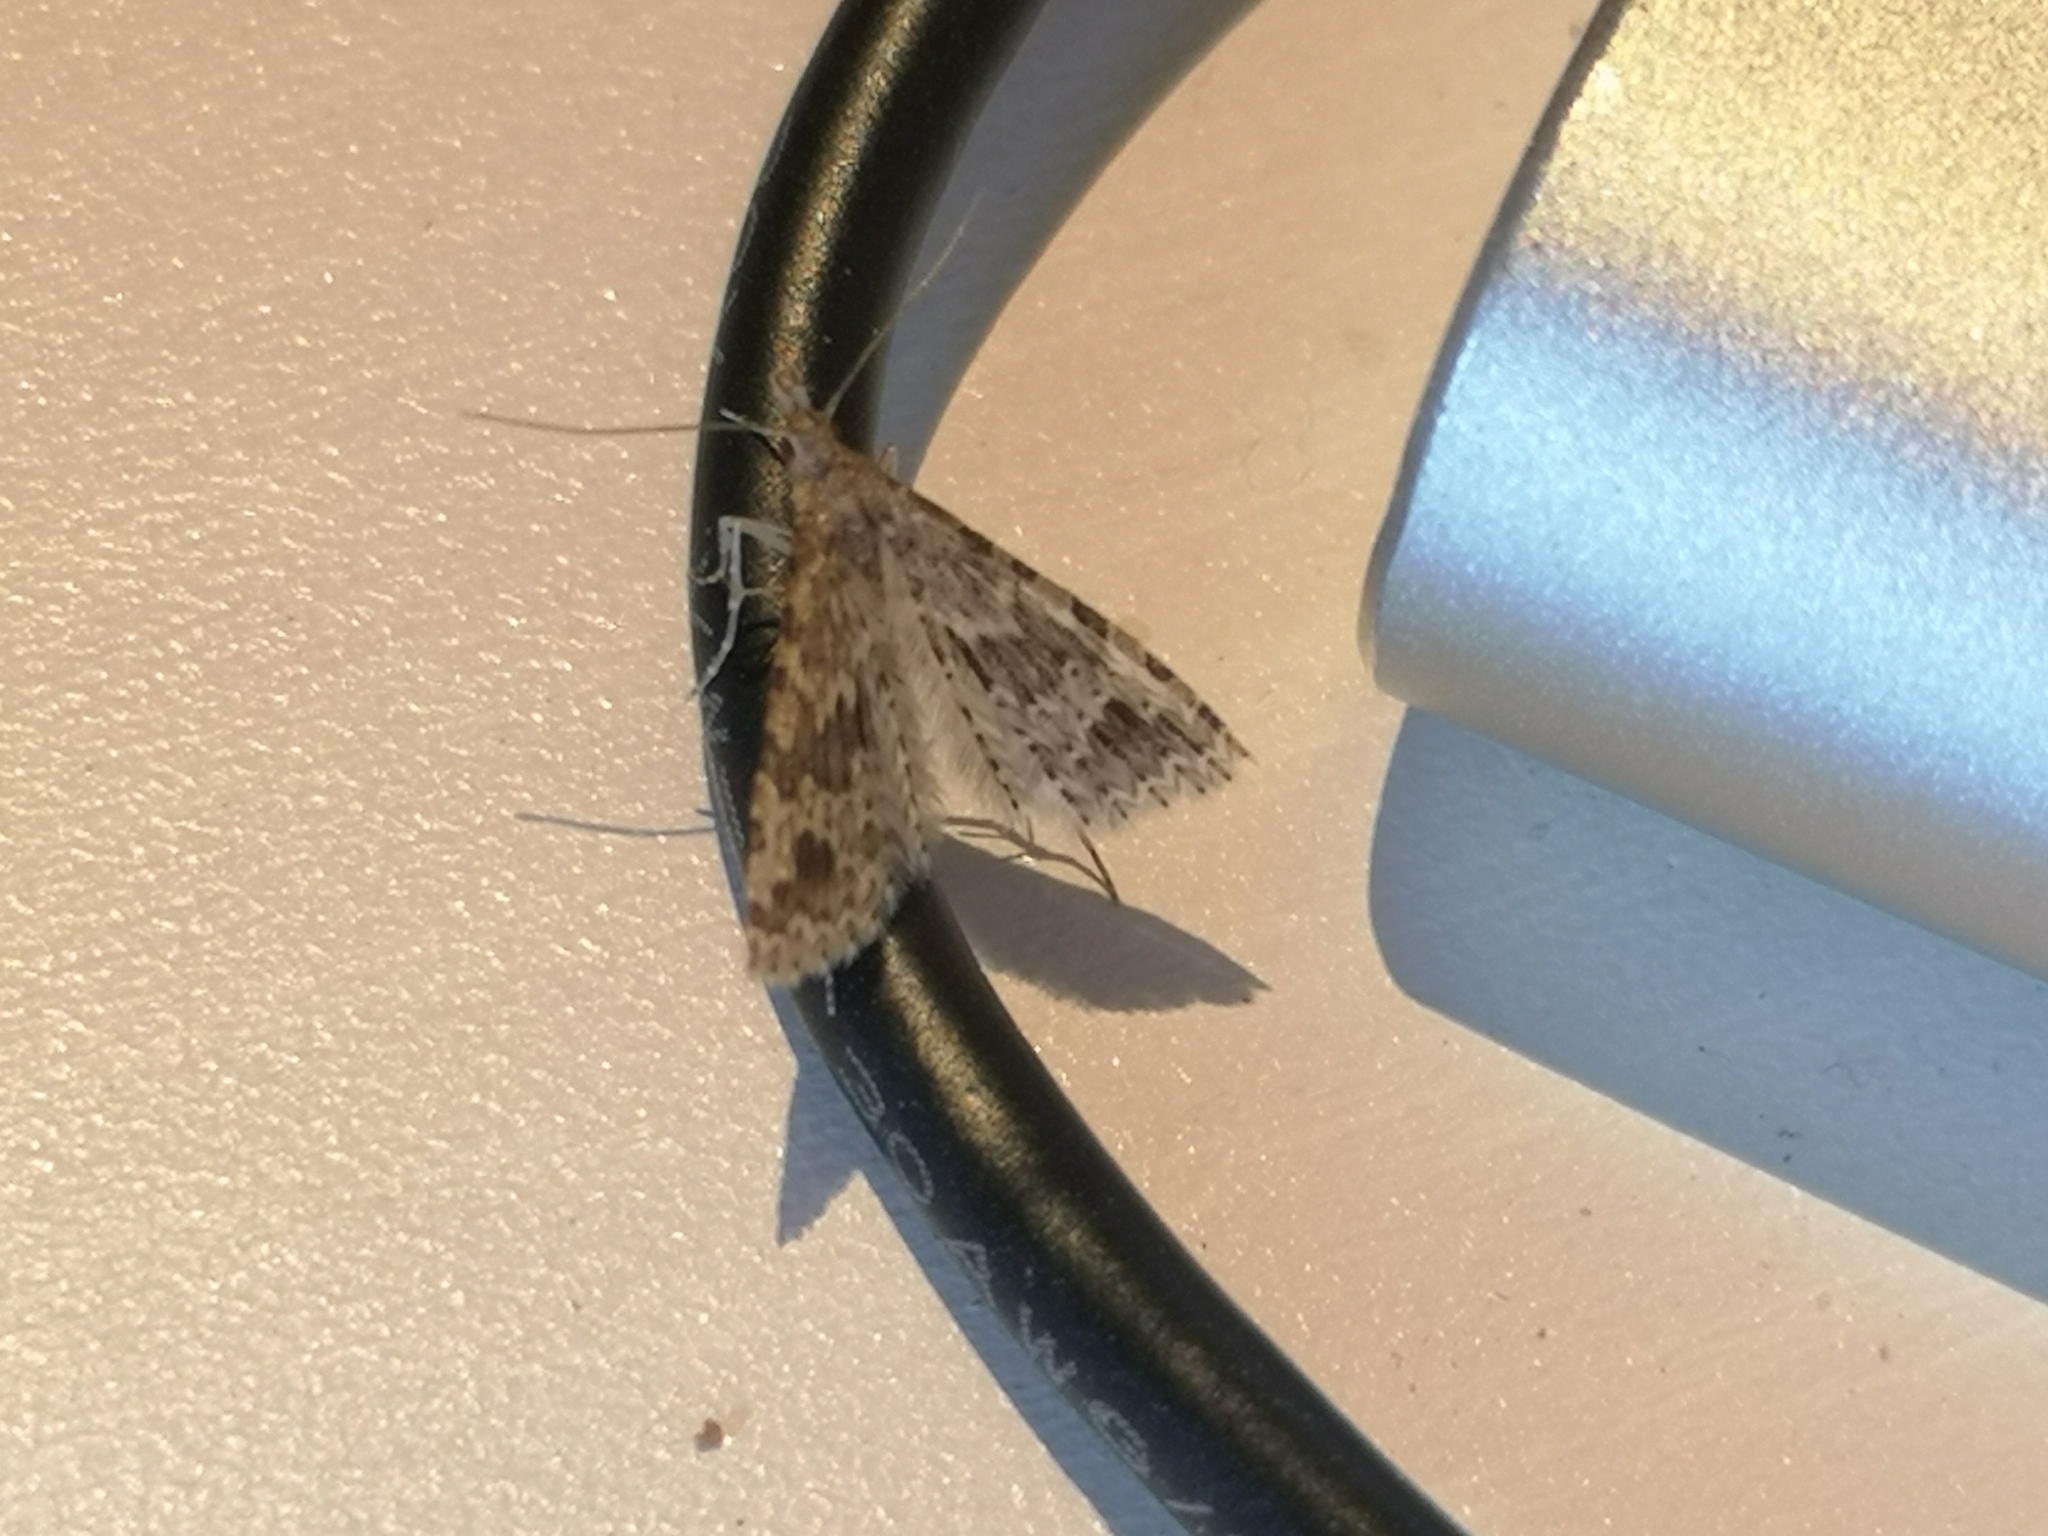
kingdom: Animalia
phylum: Arthropoda
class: Insecta
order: Lepidoptera
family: Alucitidae
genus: Alucita
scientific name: Alucita hexadactyla
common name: Twenty-plume moth
